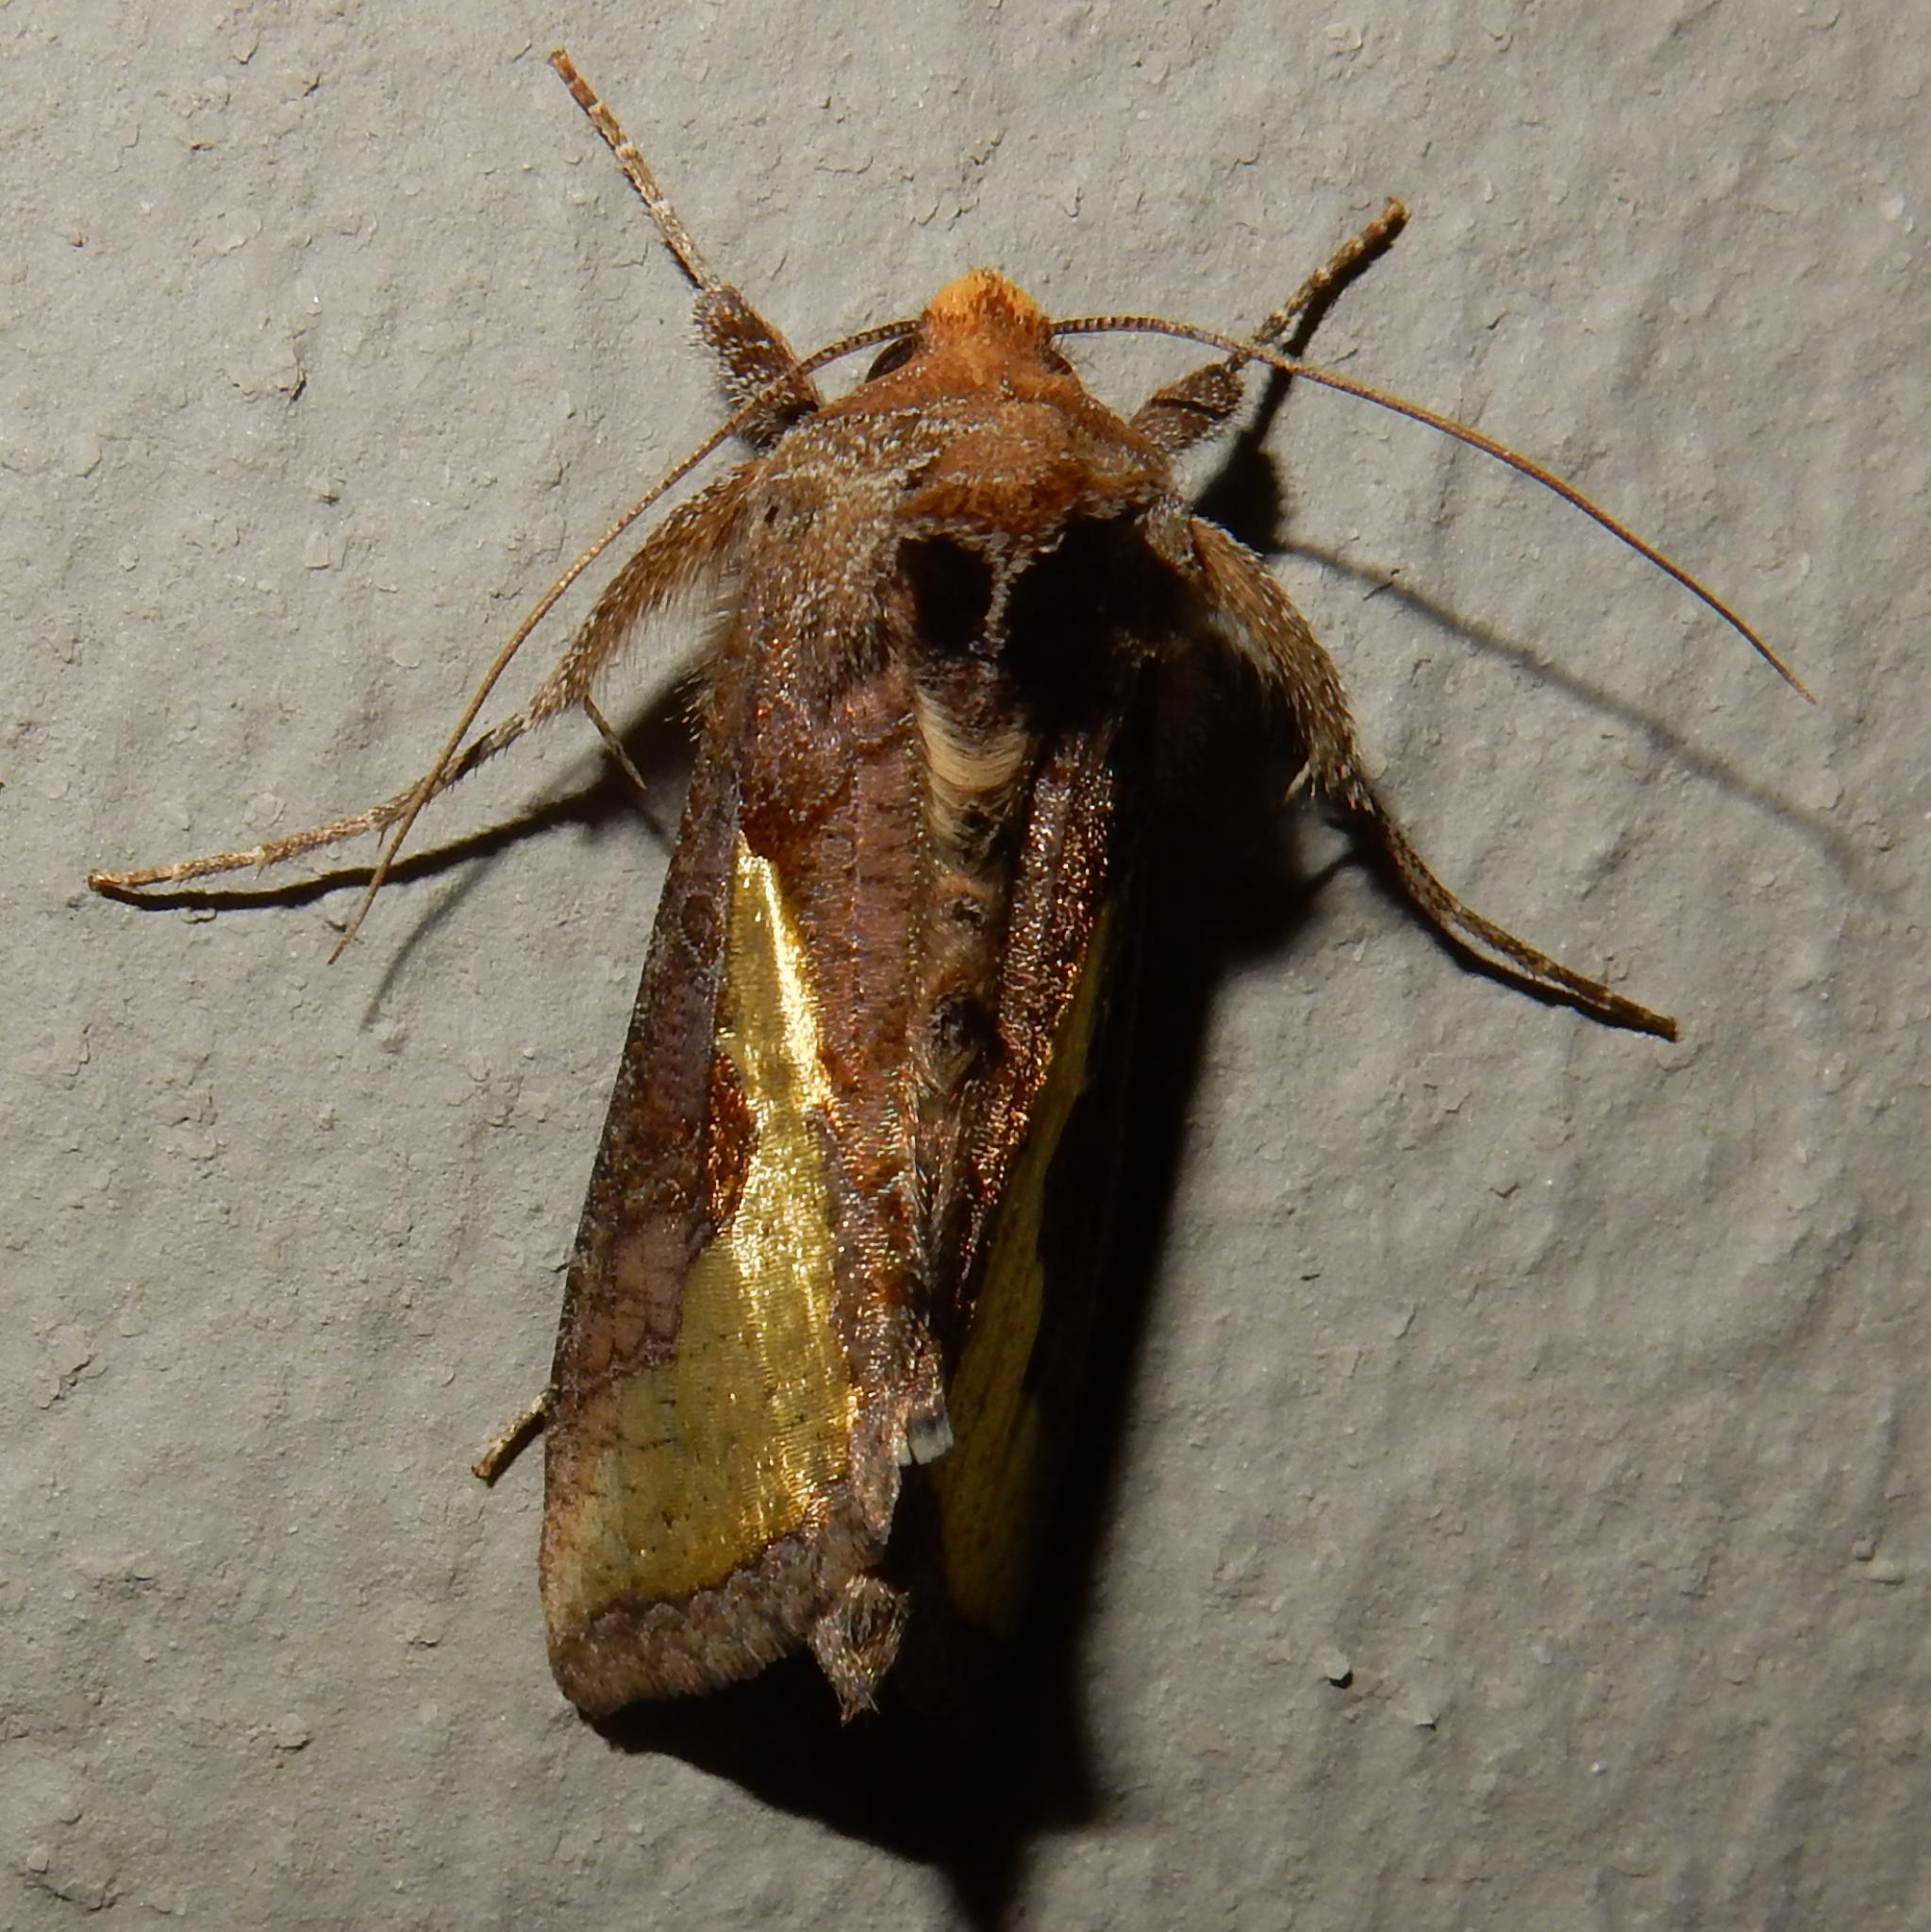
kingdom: Animalia
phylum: Arthropoda
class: Insecta
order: Lepidoptera
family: Noctuidae
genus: Thysanoplusia
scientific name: Thysanoplusia orichalcea
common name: Slender burnished brass, golden plusia
